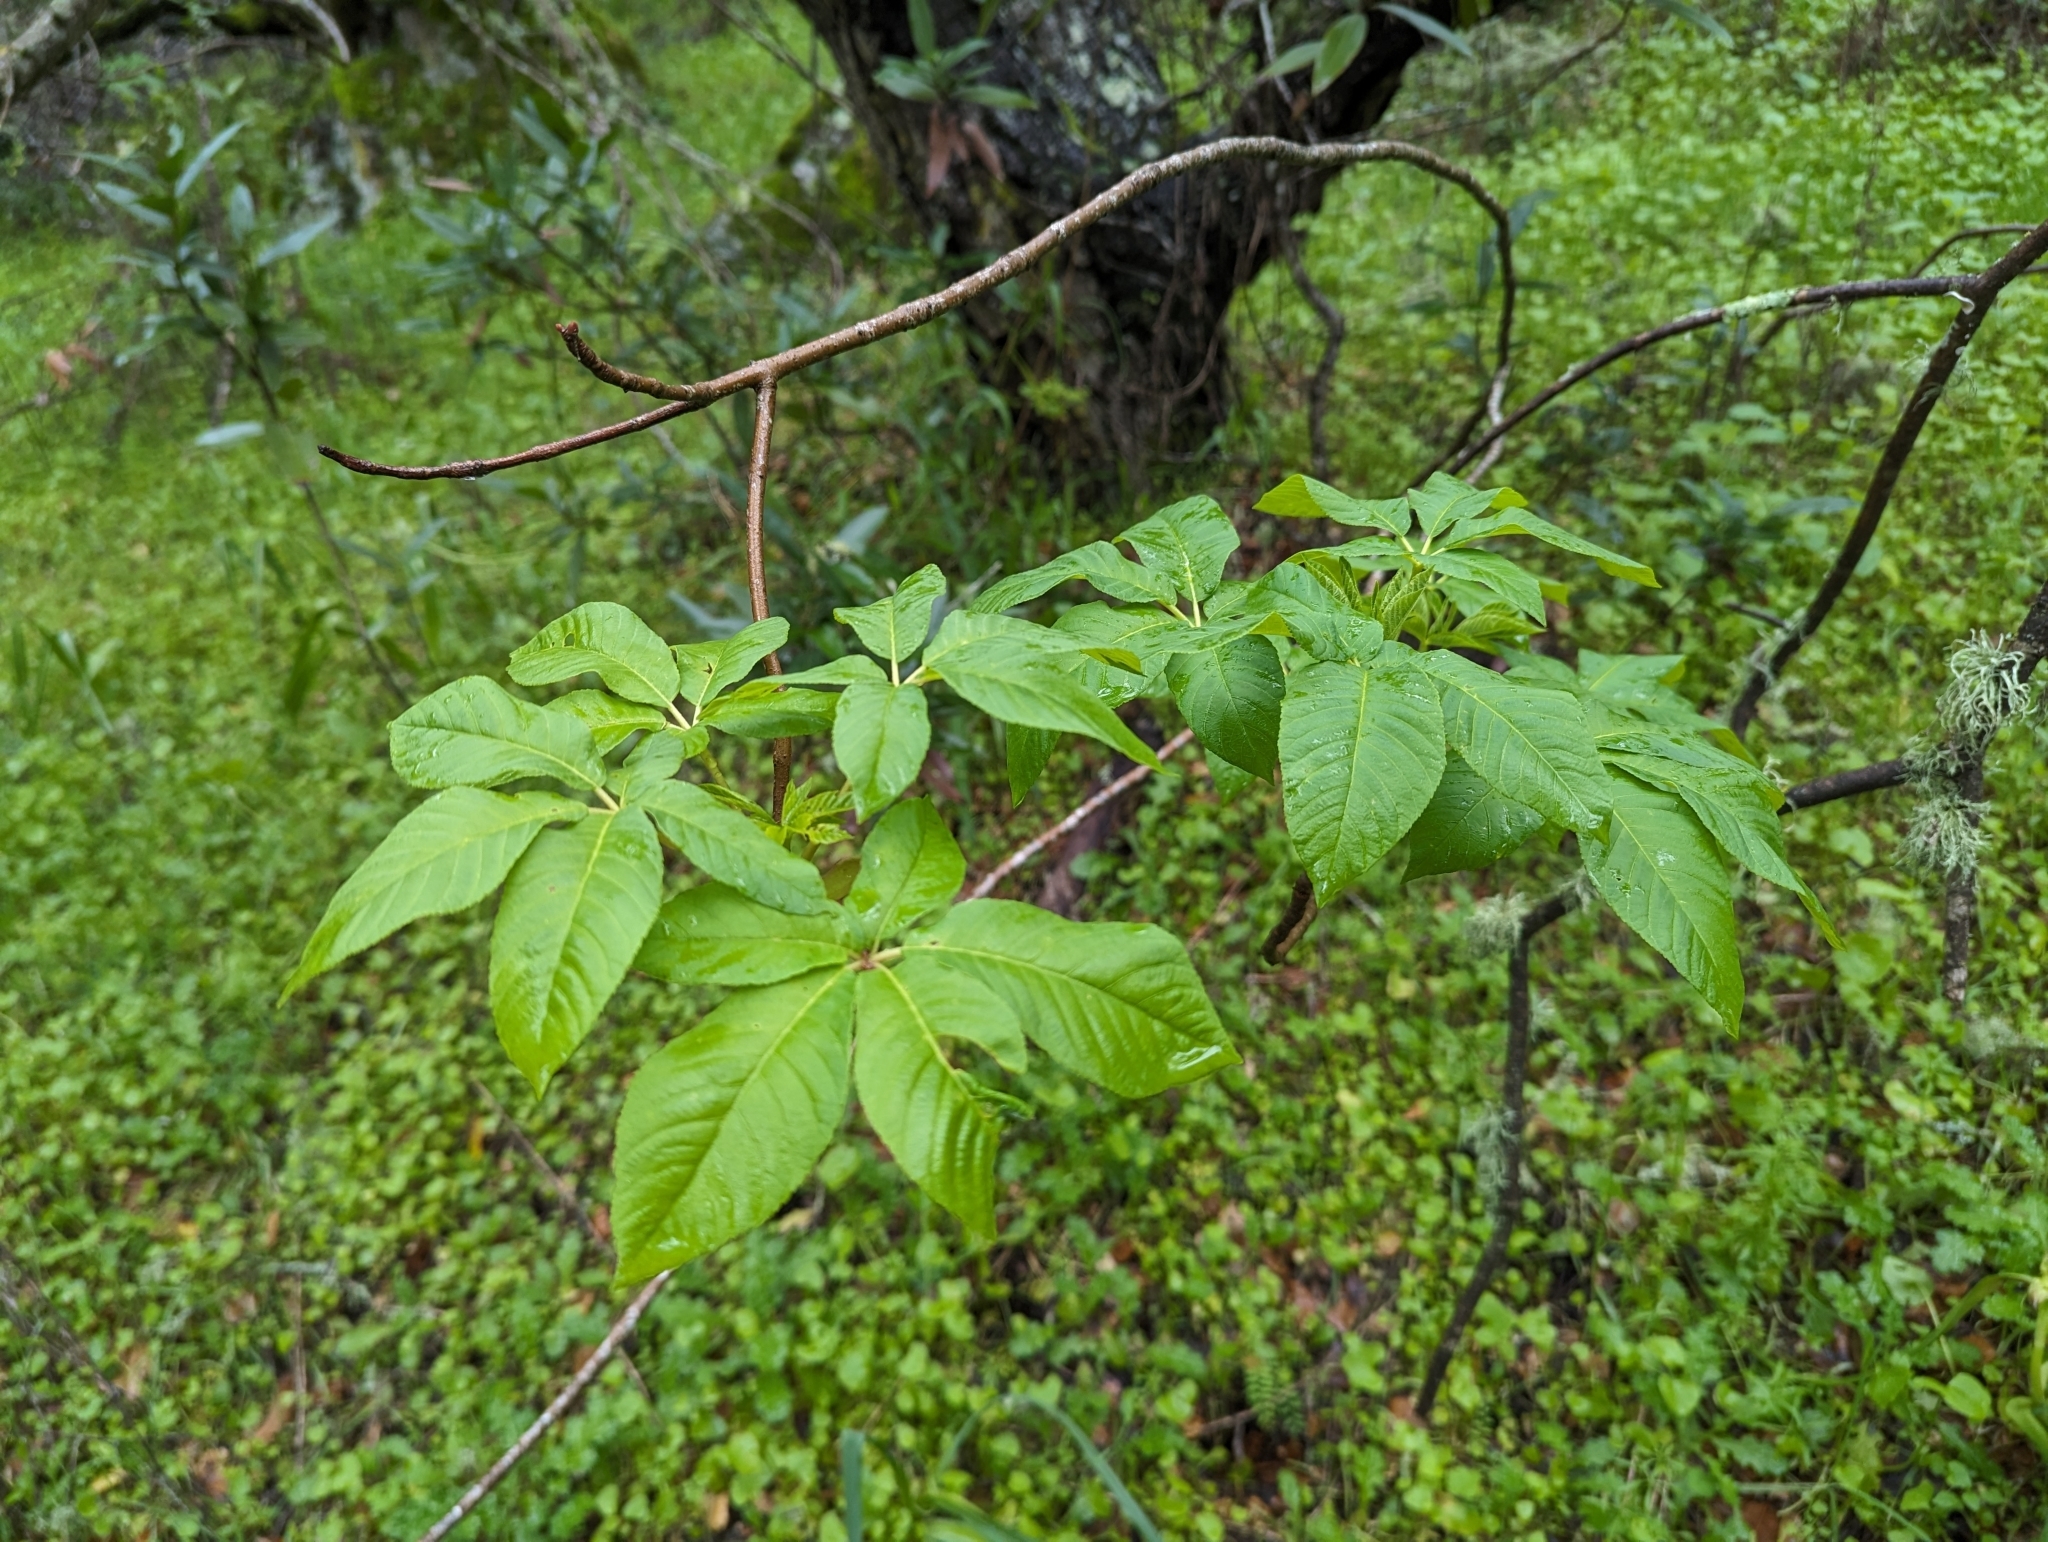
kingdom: Plantae
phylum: Tracheophyta
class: Magnoliopsida
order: Sapindales
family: Sapindaceae
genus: Aesculus
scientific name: Aesculus californica
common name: California buckeye
